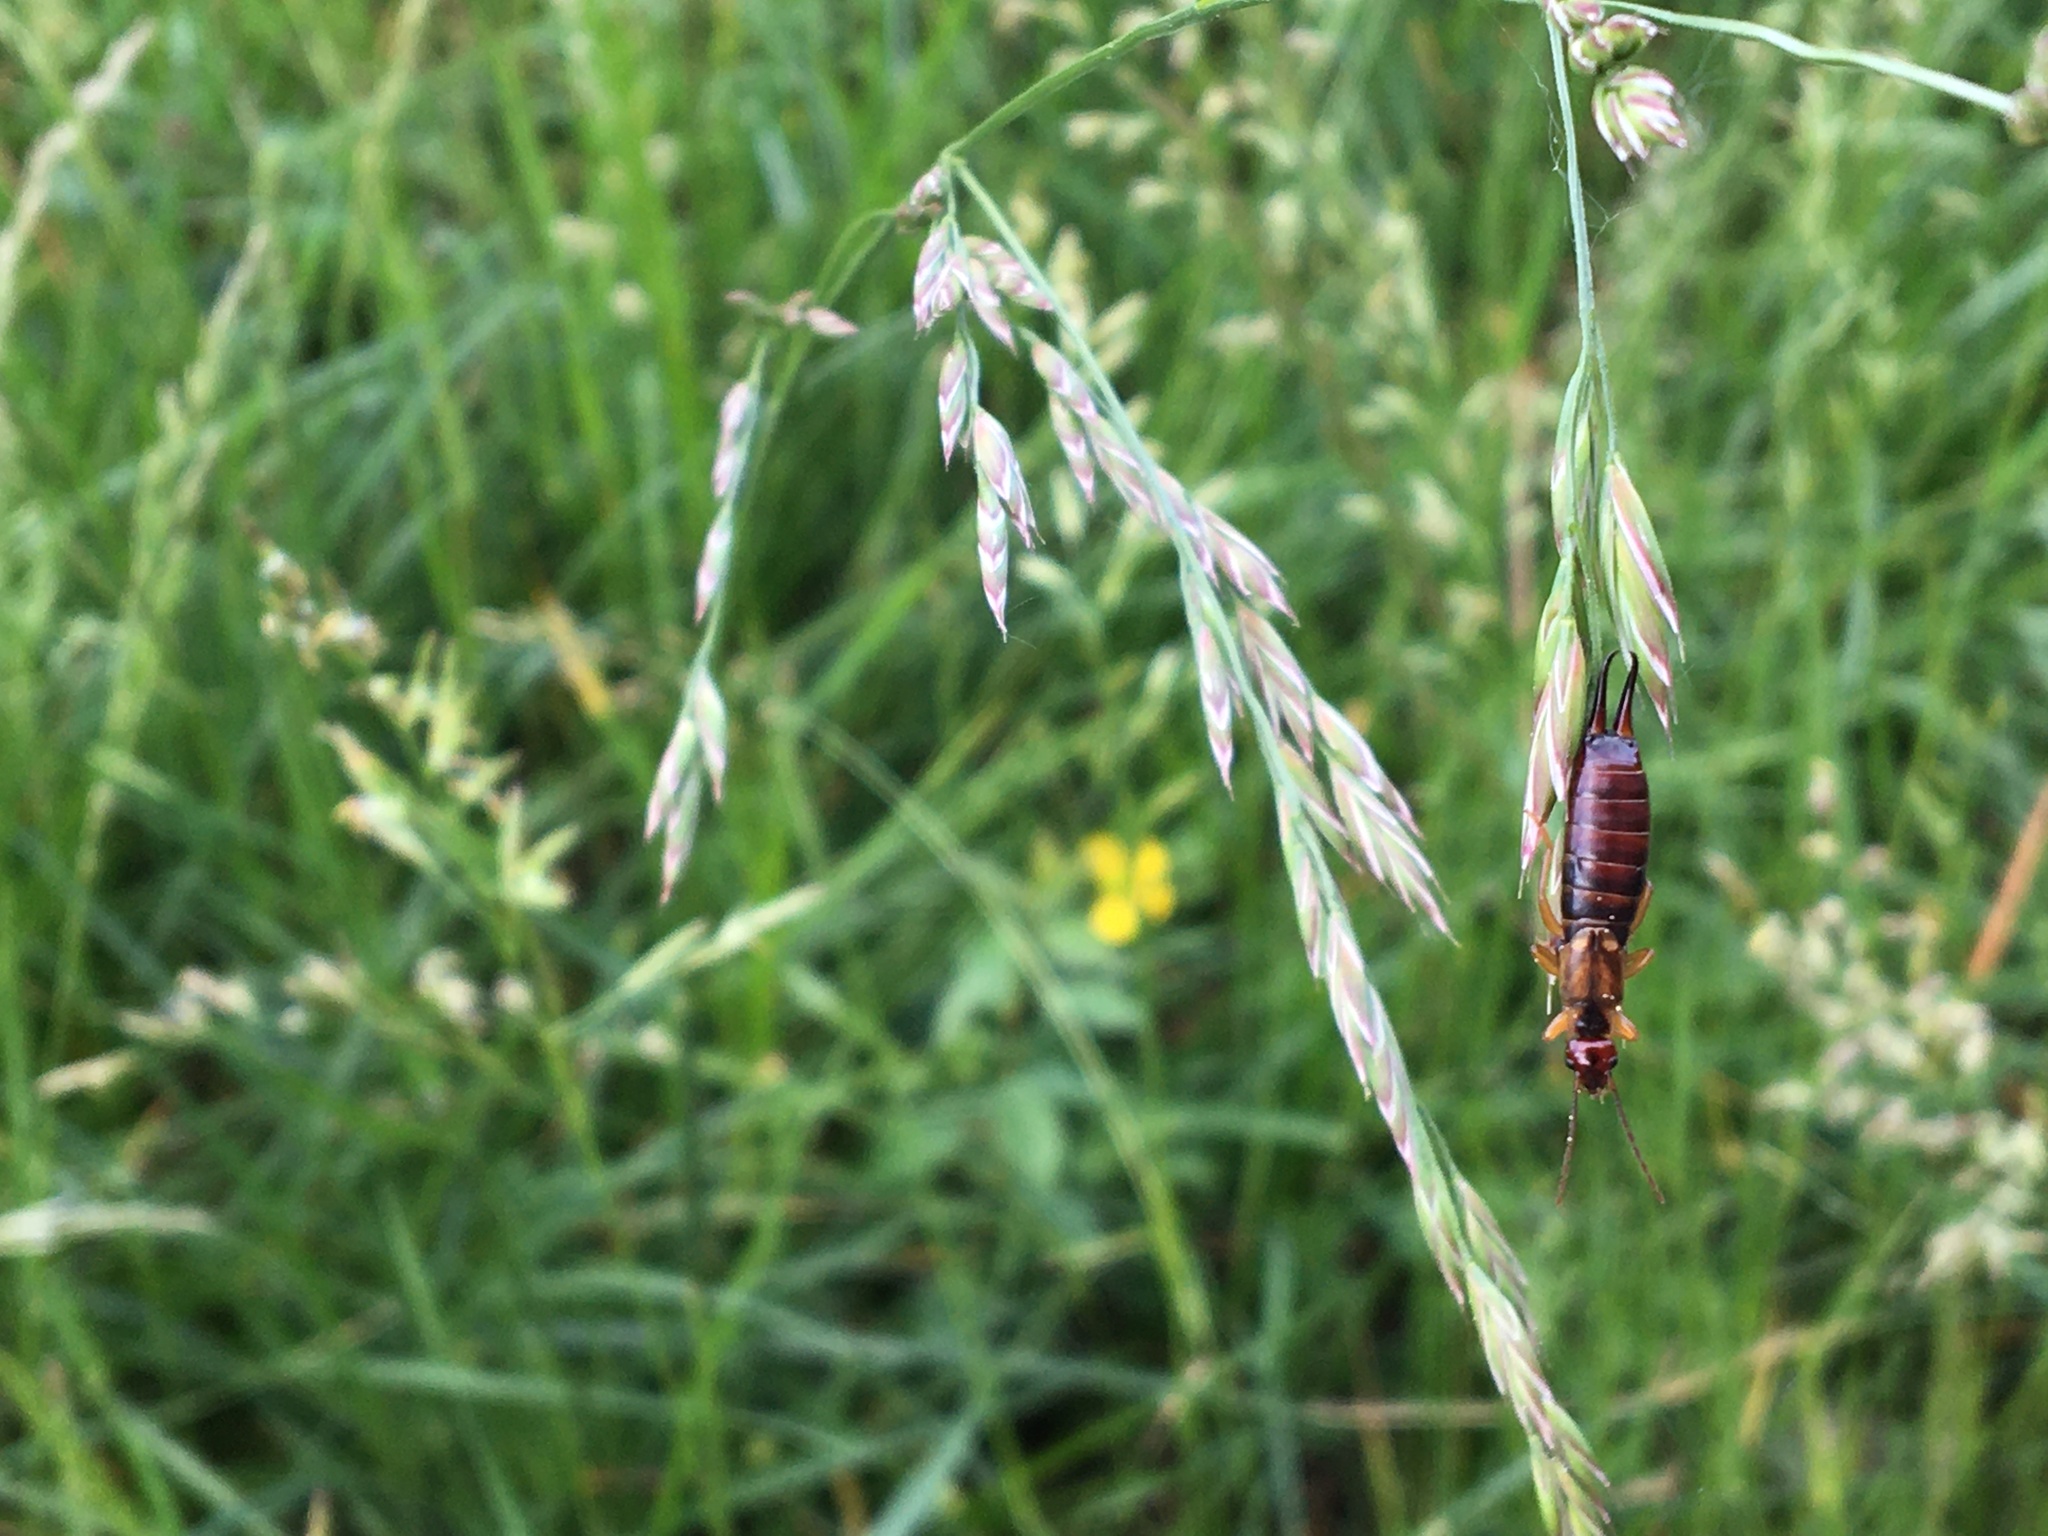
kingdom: Animalia
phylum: Arthropoda
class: Insecta
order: Dermaptera
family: Forficulidae
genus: Forficula
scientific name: Forficula
